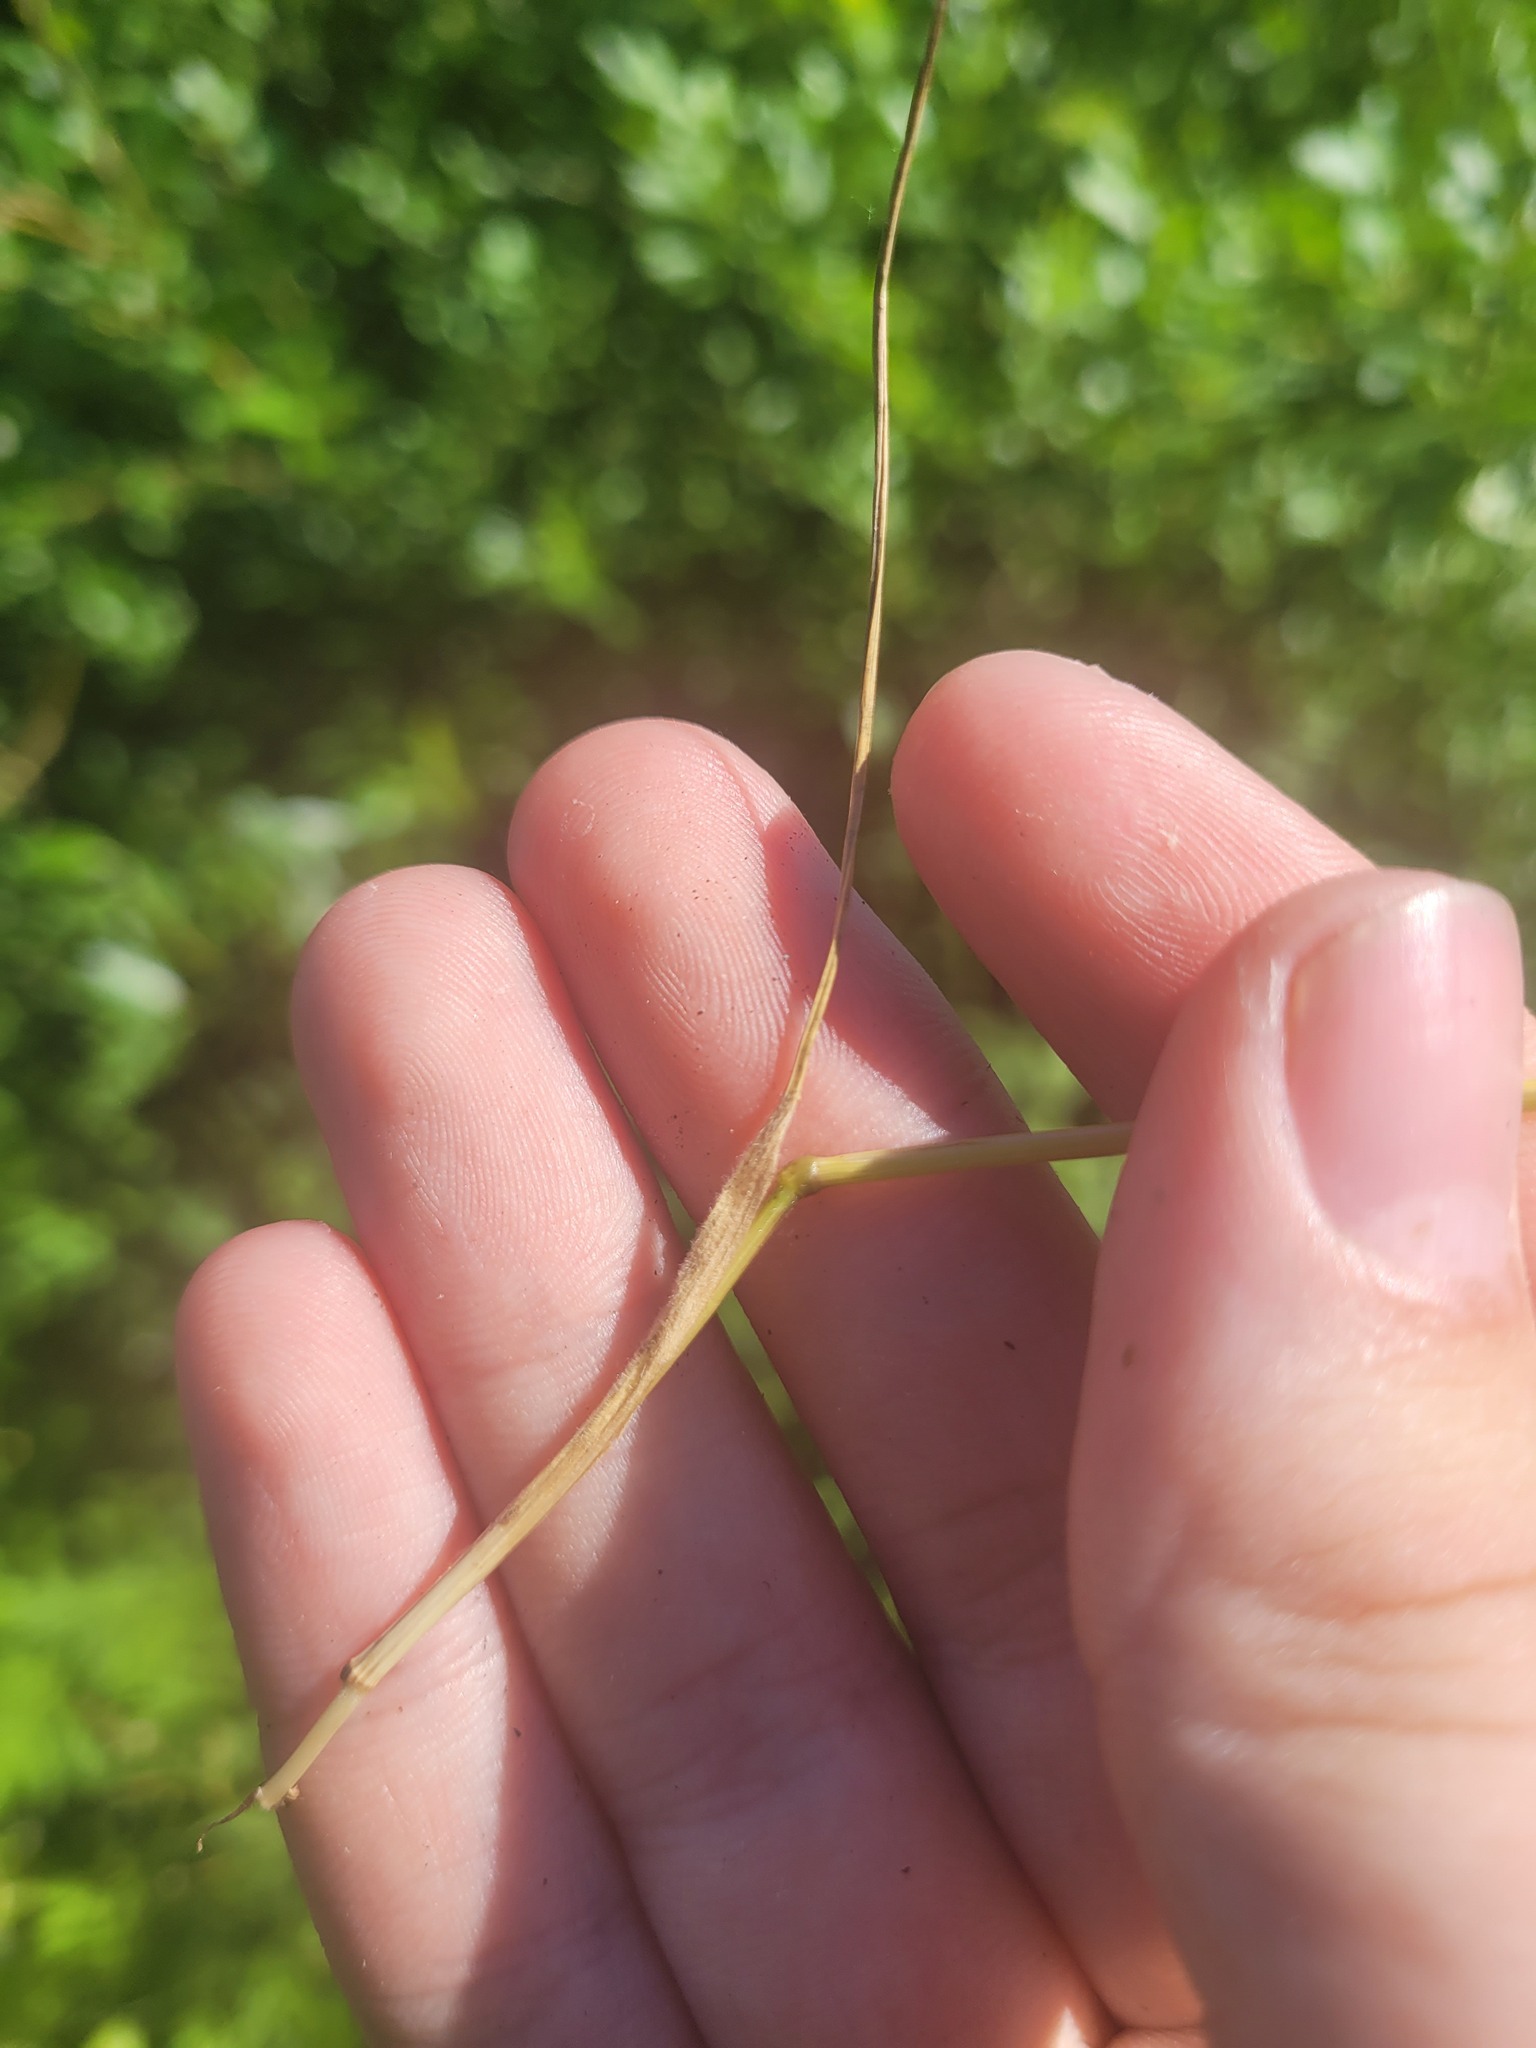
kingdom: Plantae
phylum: Tracheophyta
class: Liliopsida
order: Poales
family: Poaceae
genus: Festuca
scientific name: Festuca rubra
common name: Red fescue
